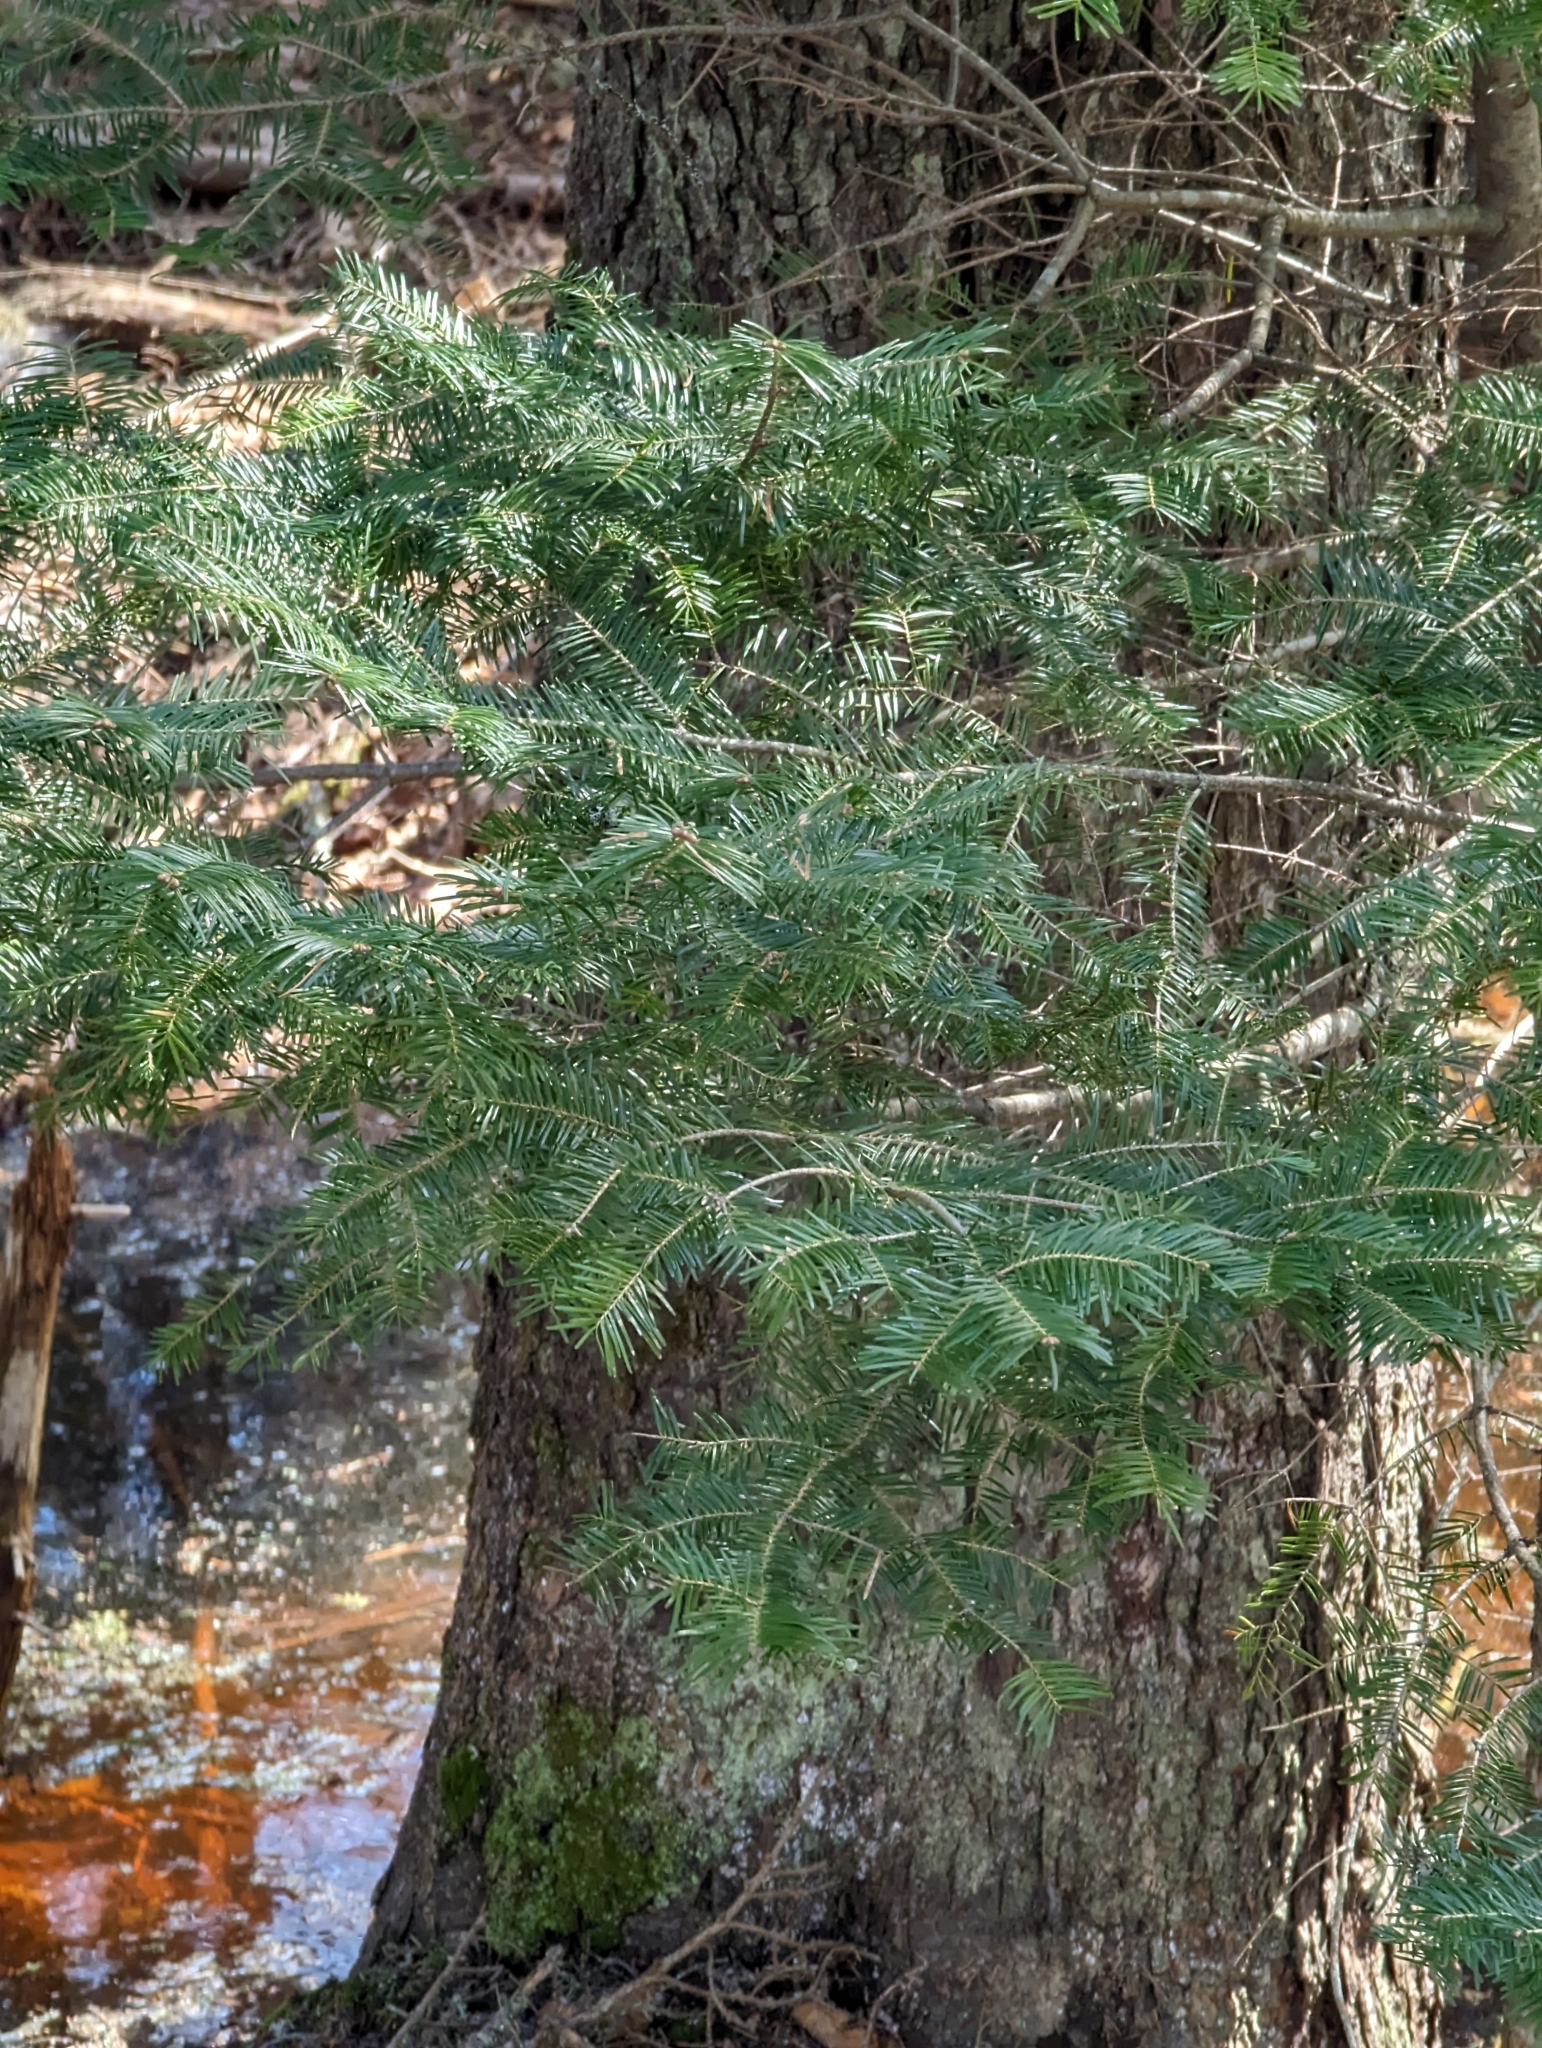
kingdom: Plantae
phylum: Tracheophyta
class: Pinopsida
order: Pinales
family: Pinaceae
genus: Abies
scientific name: Abies balsamea
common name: Balsam fir
